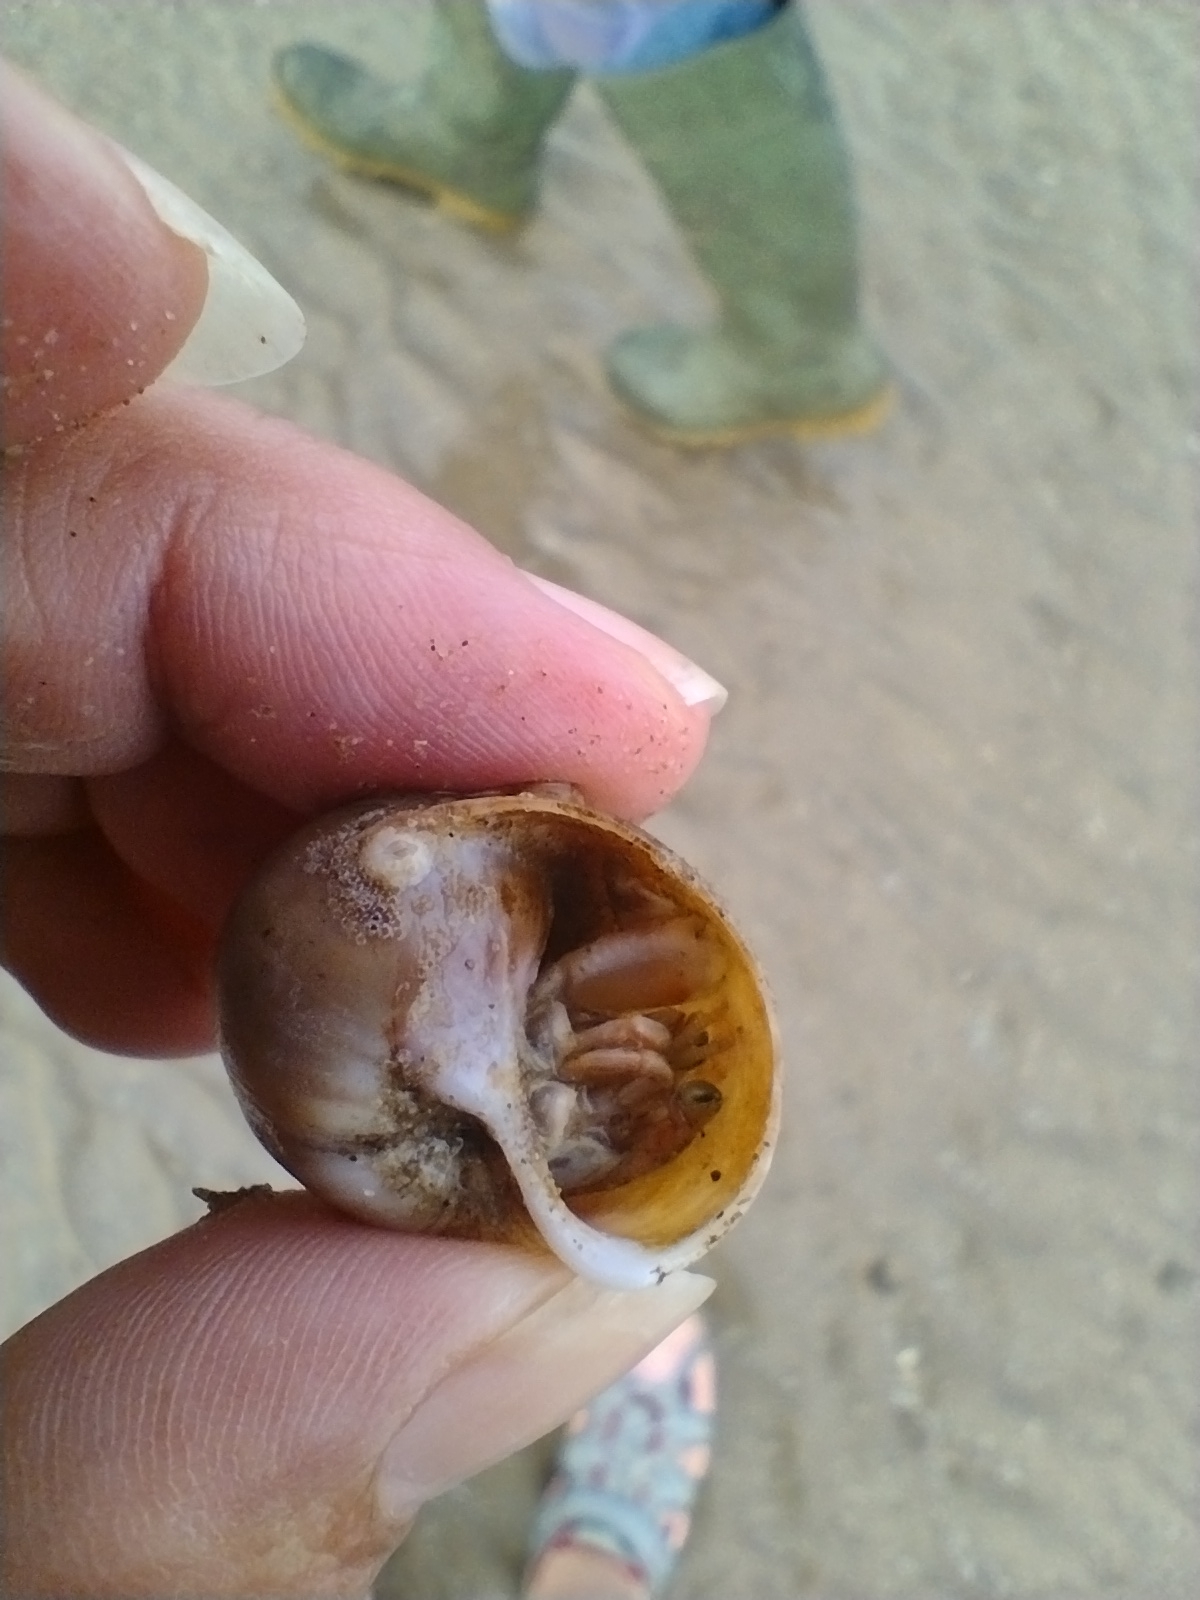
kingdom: Animalia
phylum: Arthropoda
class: Malacostraca
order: Decapoda
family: Paguridae
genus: Pagurus
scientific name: Pagurus bernhardus
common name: Hermit crab
